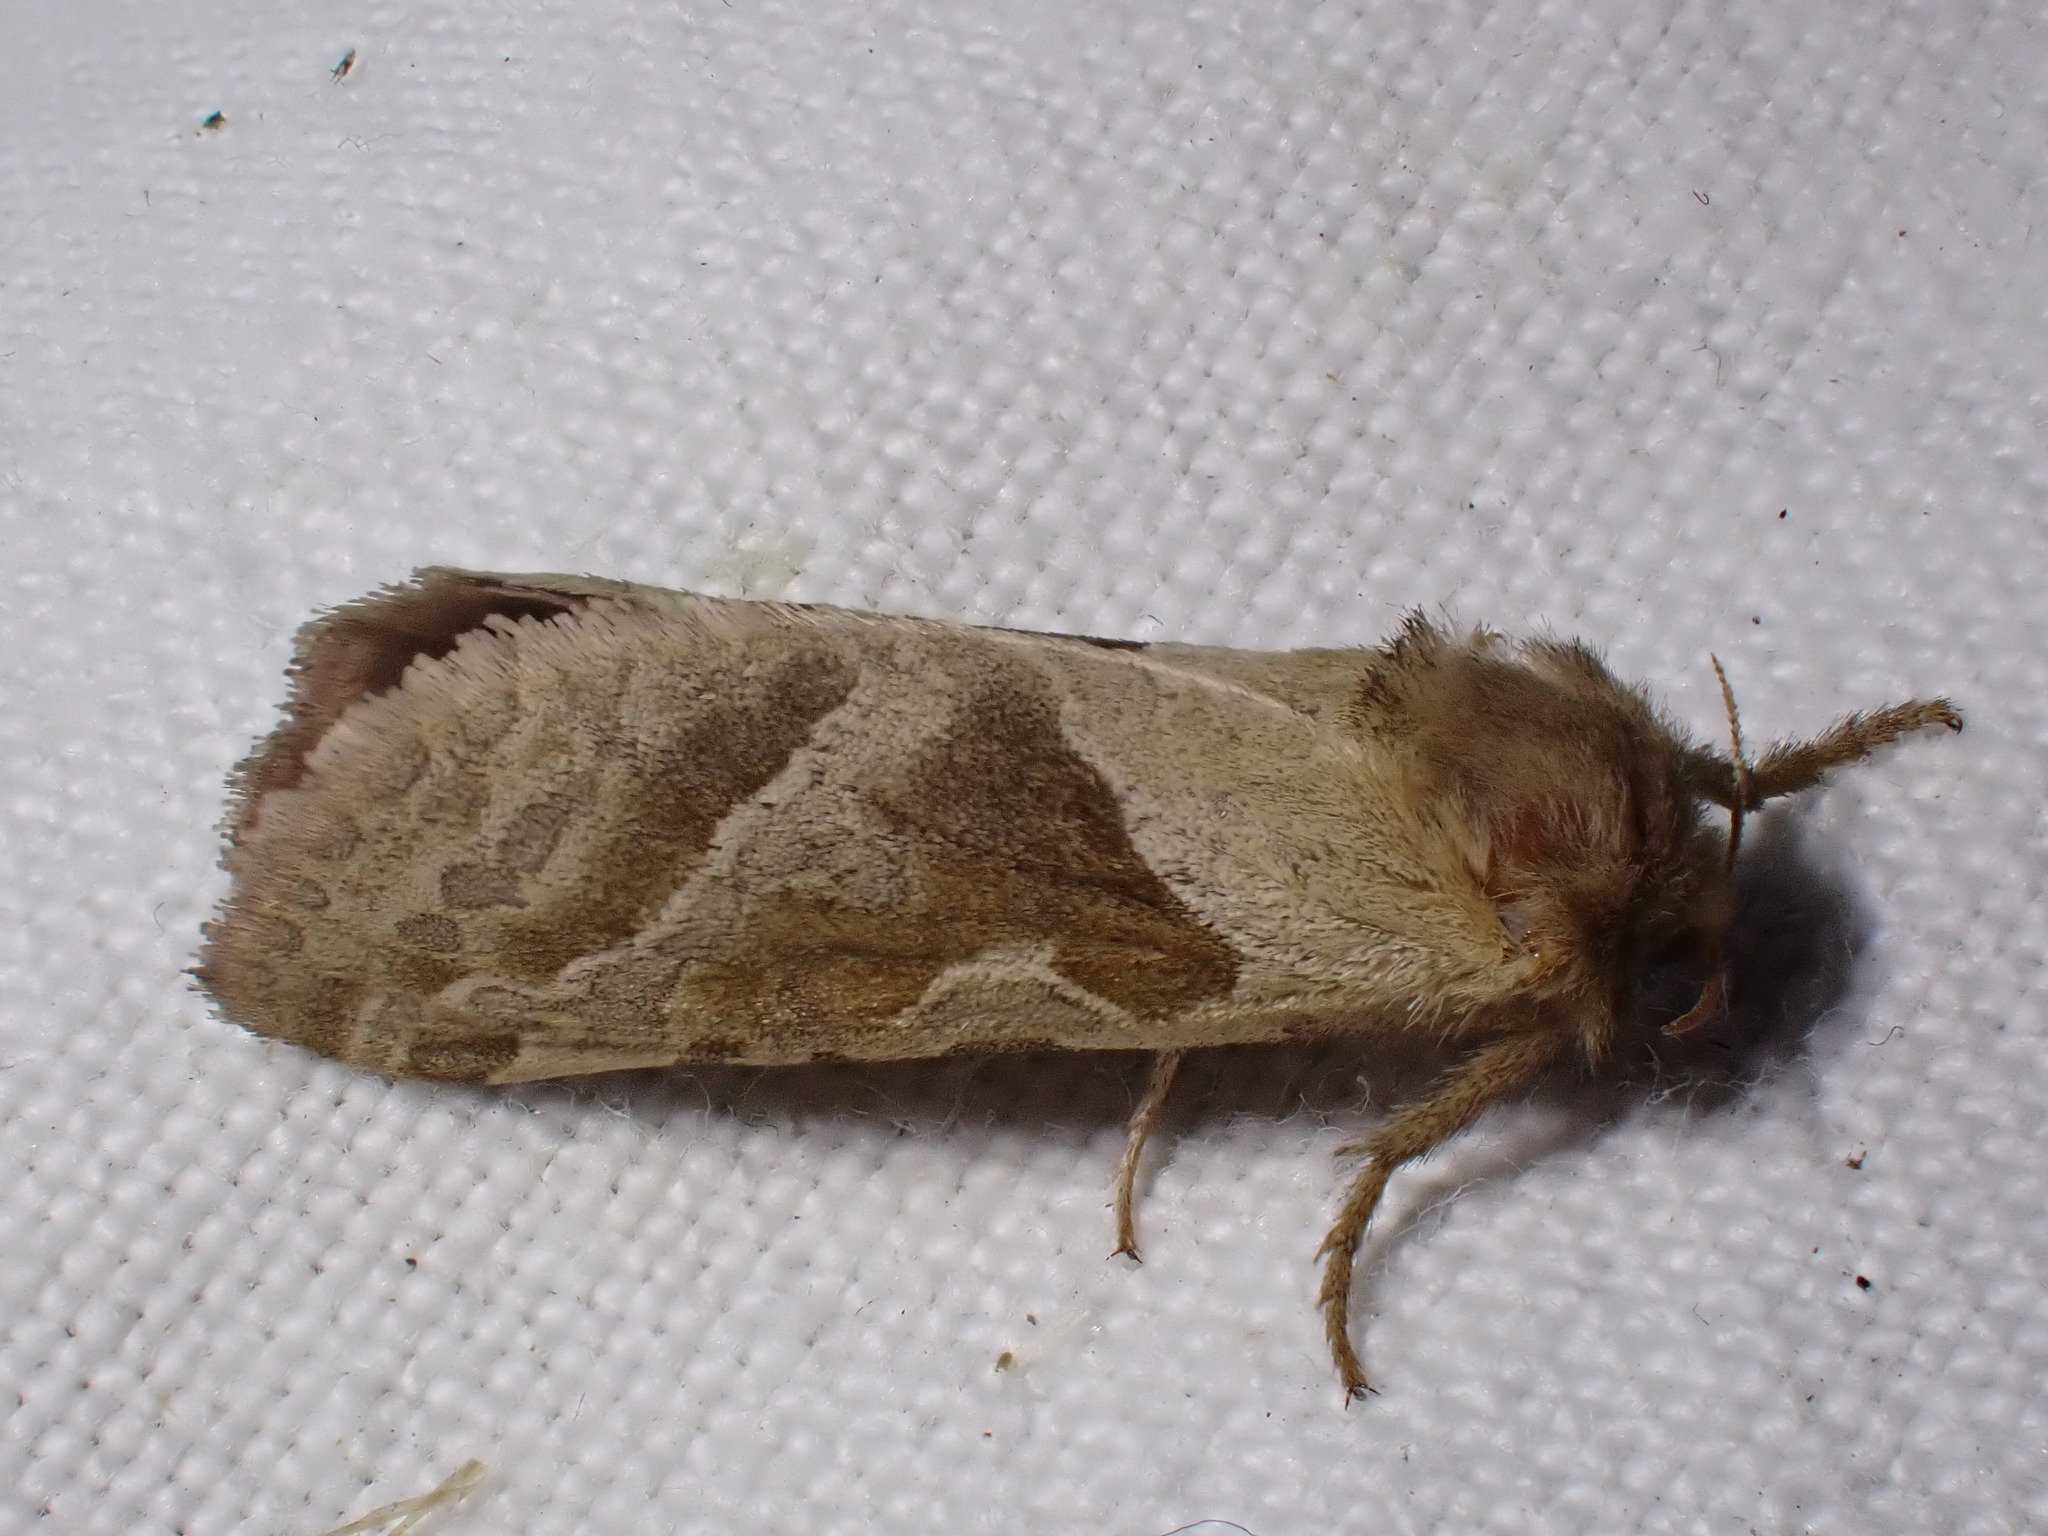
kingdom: Animalia
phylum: Arthropoda
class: Insecta
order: Lepidoptera
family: Hepialidae
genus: Triodia
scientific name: Triodia sylvina
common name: Orange swift
